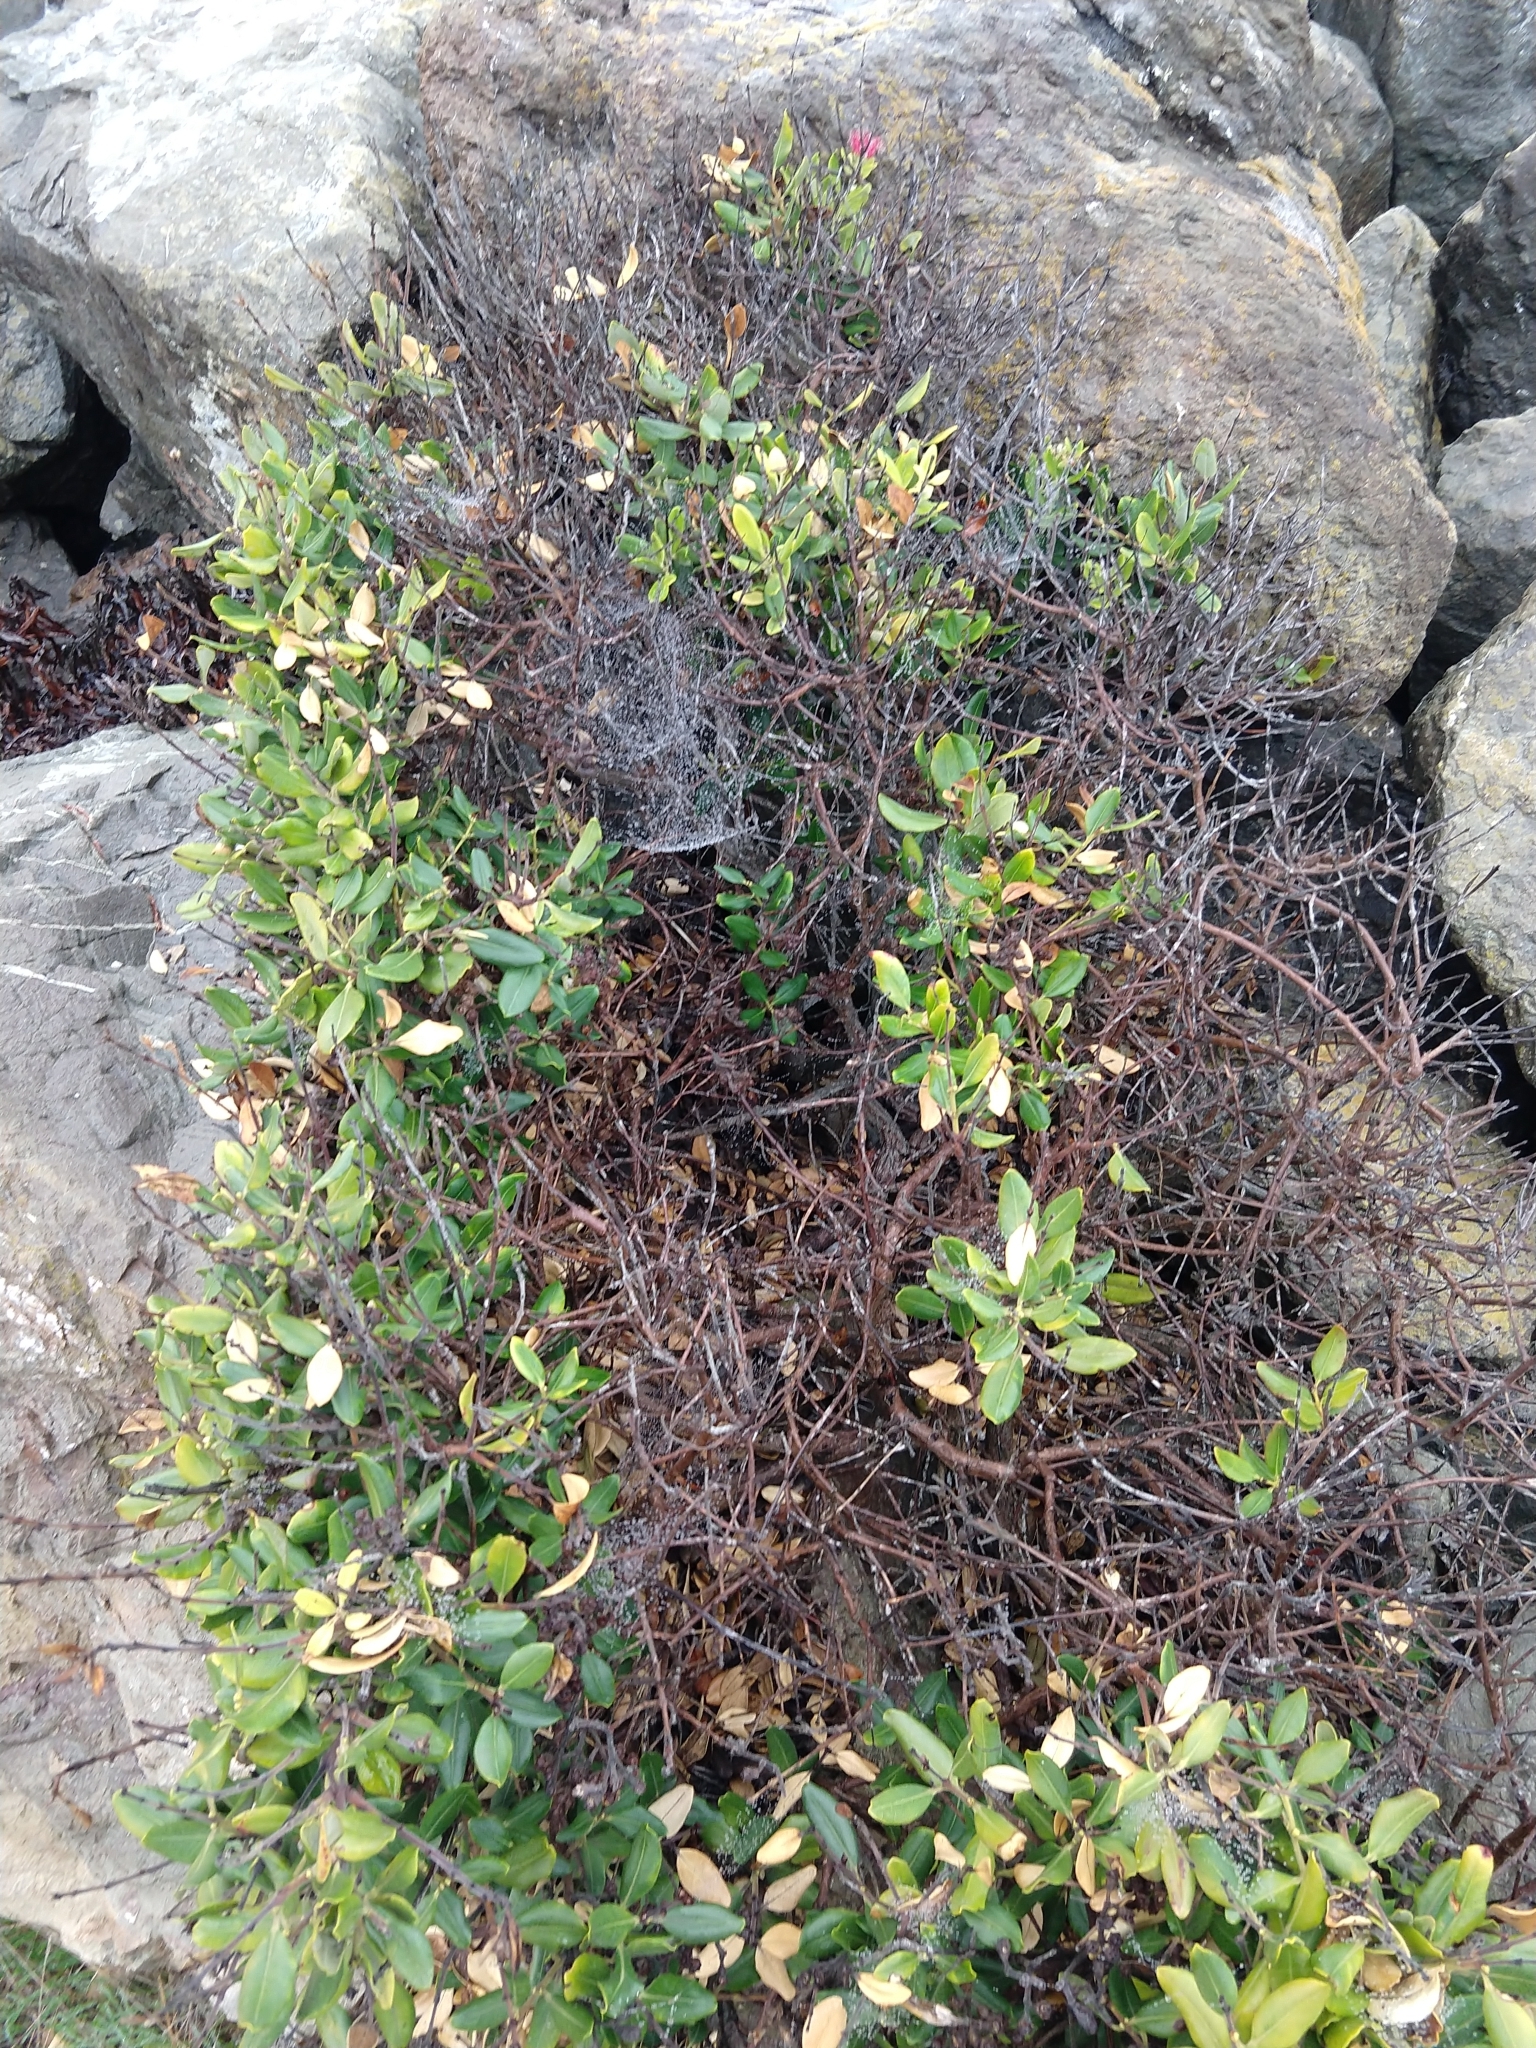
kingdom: Plantae
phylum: Tracheophyta
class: Magnoliopsida
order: Myrtales
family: Myrtaceae
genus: Metrosideros
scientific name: Metrosideros excelsa
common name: New zealand christmastree
